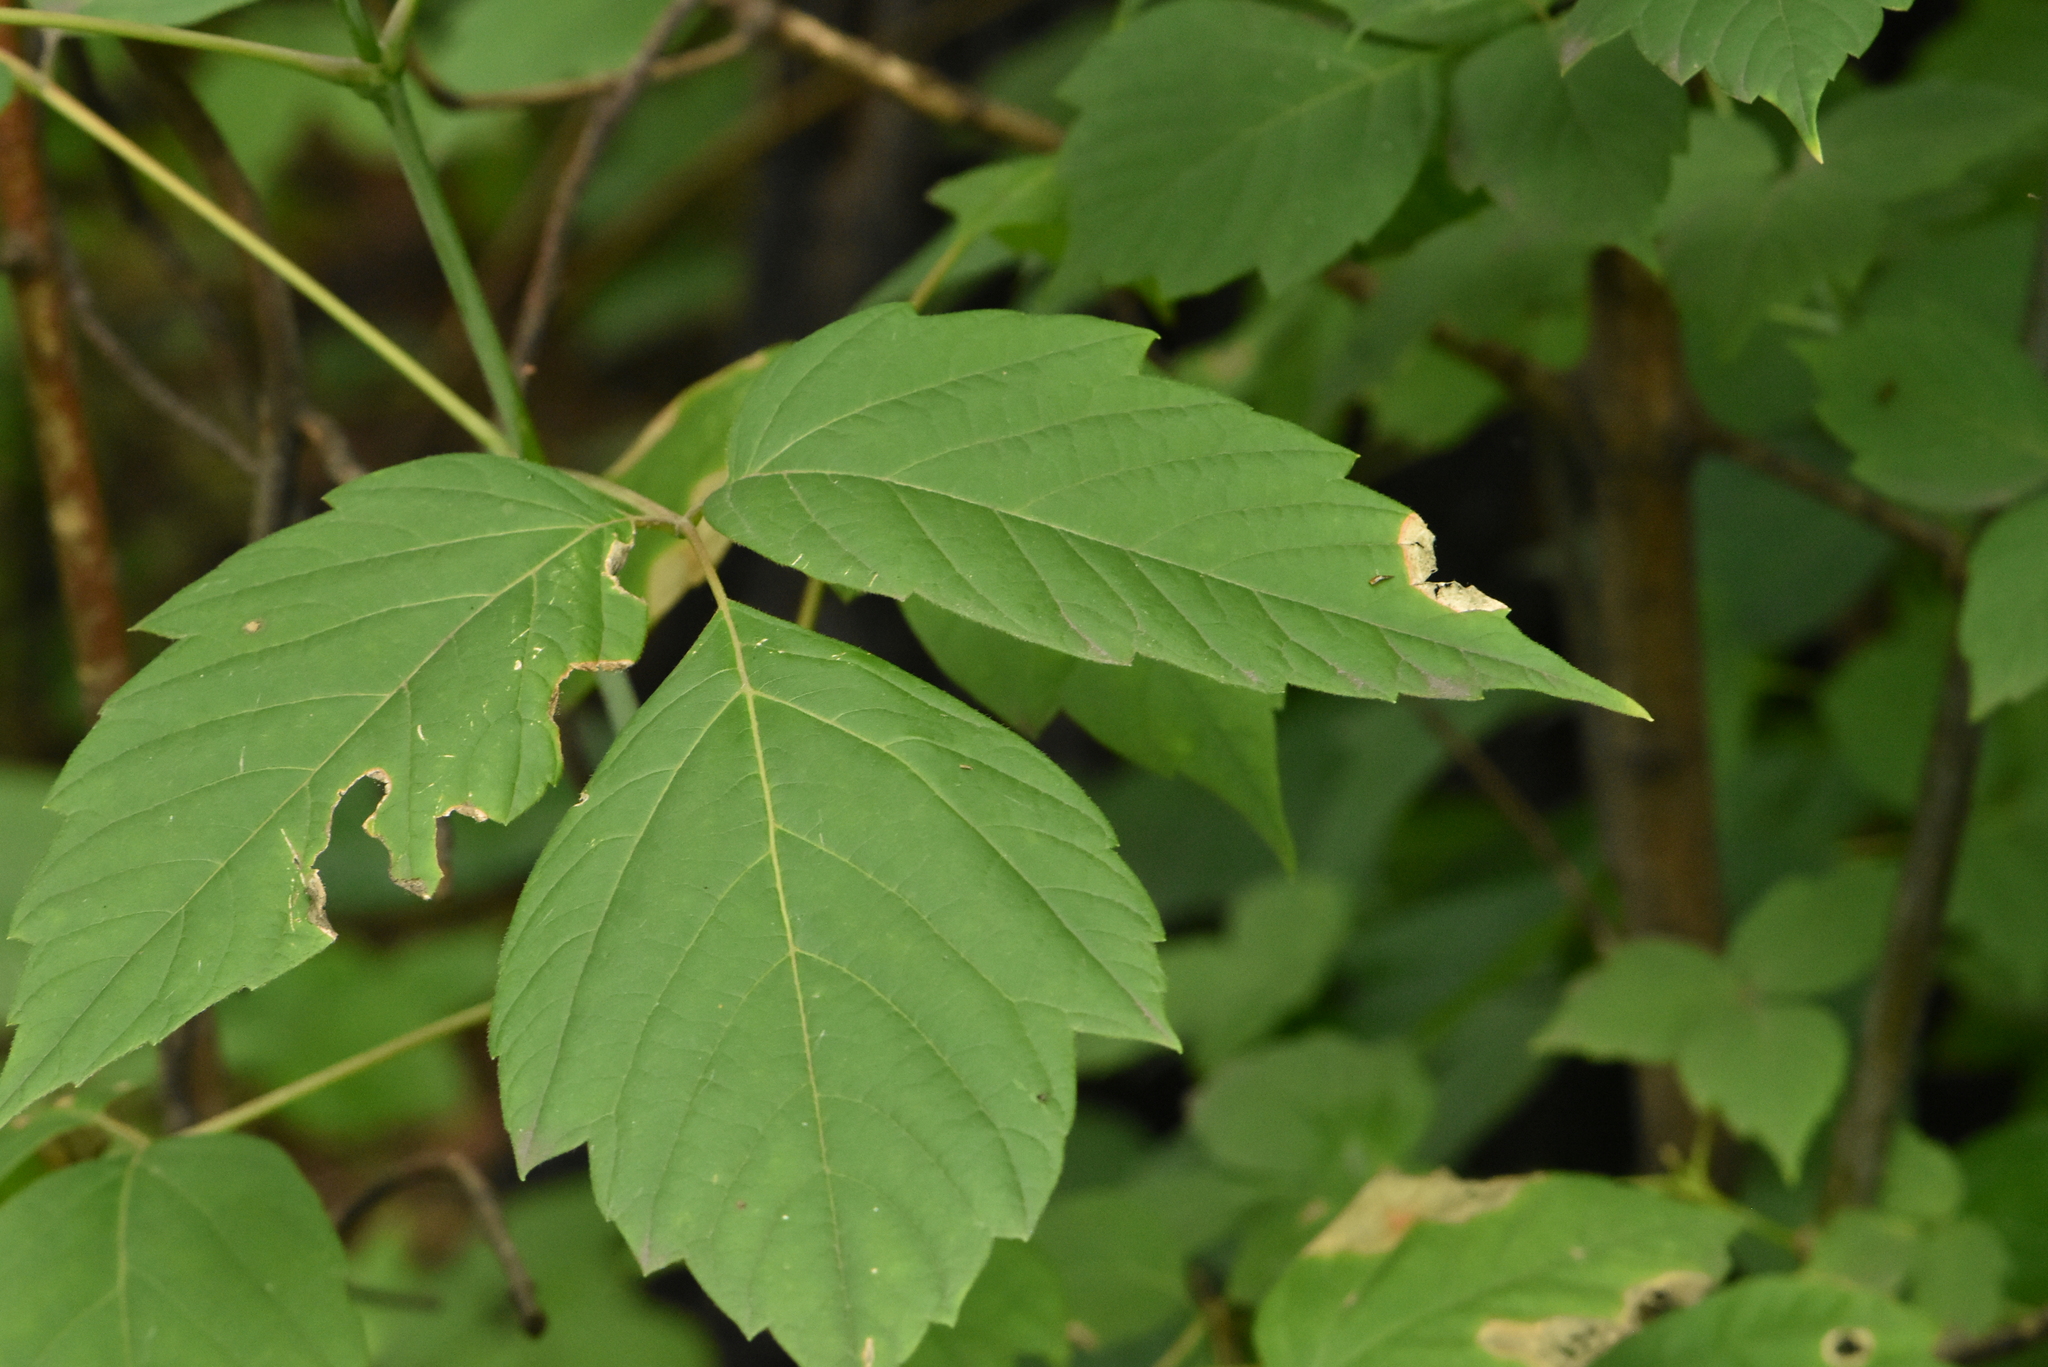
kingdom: Plantae
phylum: Tracheophyta
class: Magnoliopsida
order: Sapindales
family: Sapindaceae
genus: Acer
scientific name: Acer negundo
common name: Ashleaf maple
